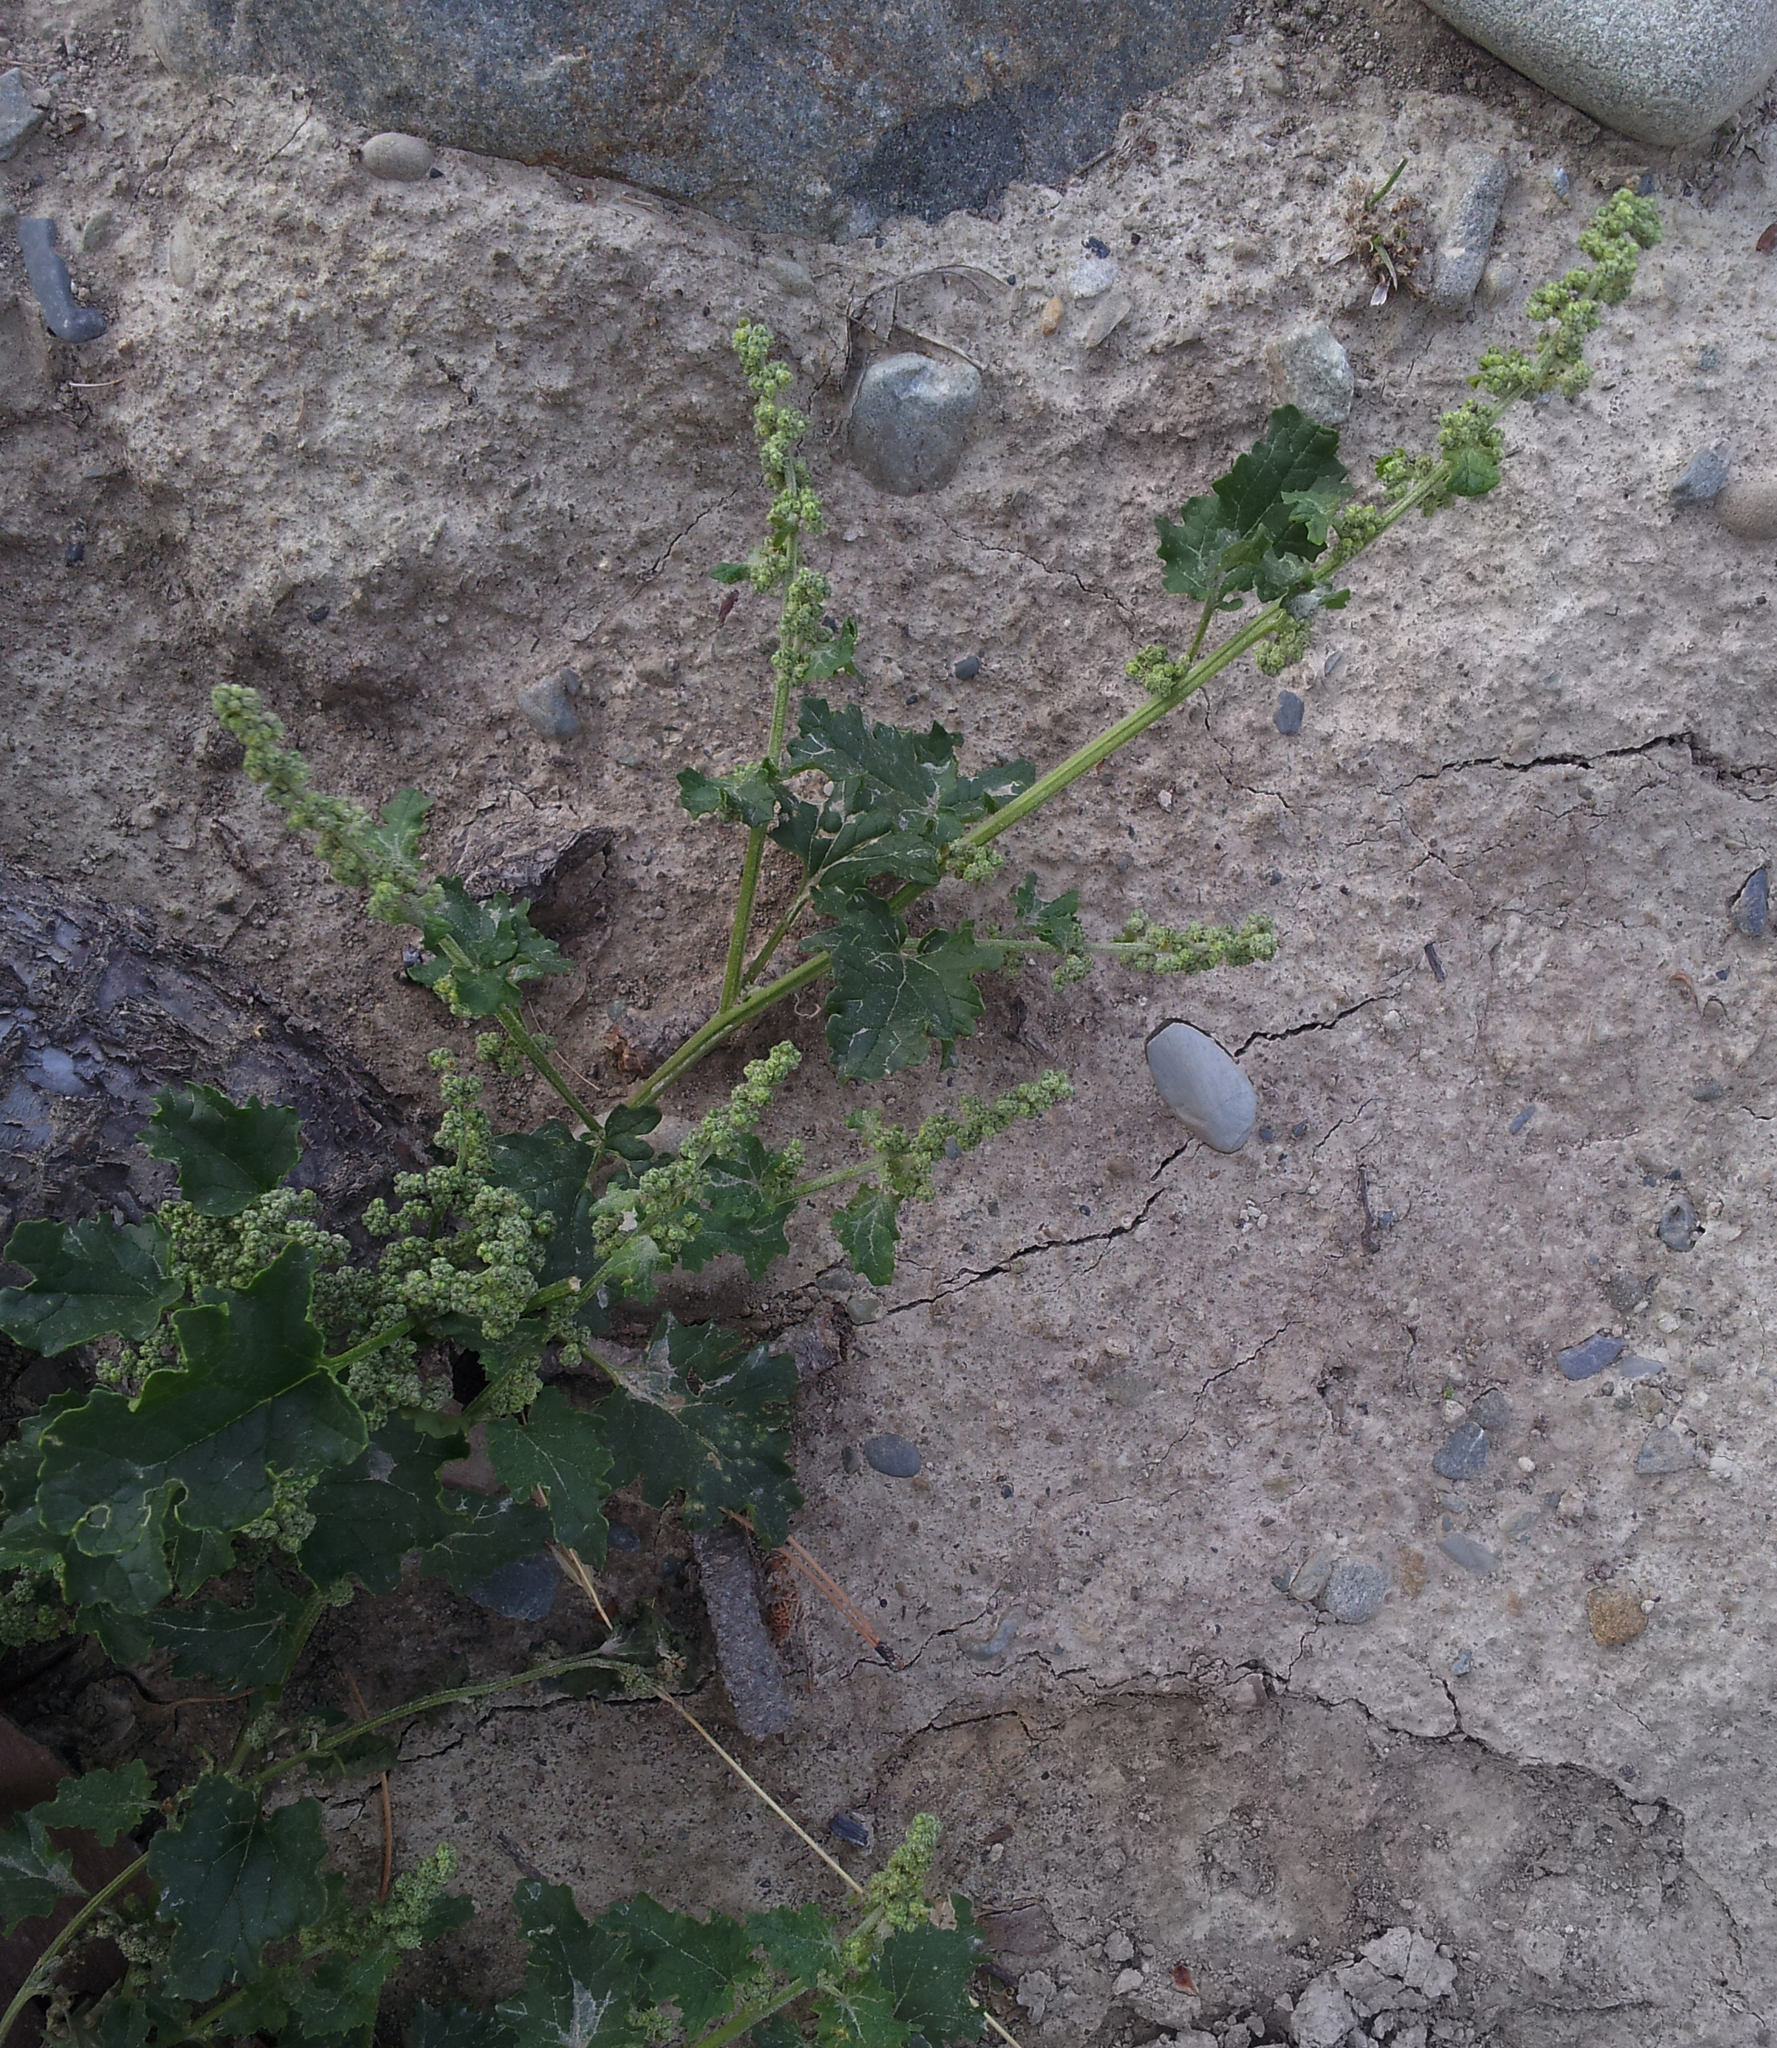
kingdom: Plantae
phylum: Tracheophyta
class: Magnoliopsida
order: Caryophyllales
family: Amaranthaceae
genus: Chenopodiastrum
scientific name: Chenopodiastrum erosum
